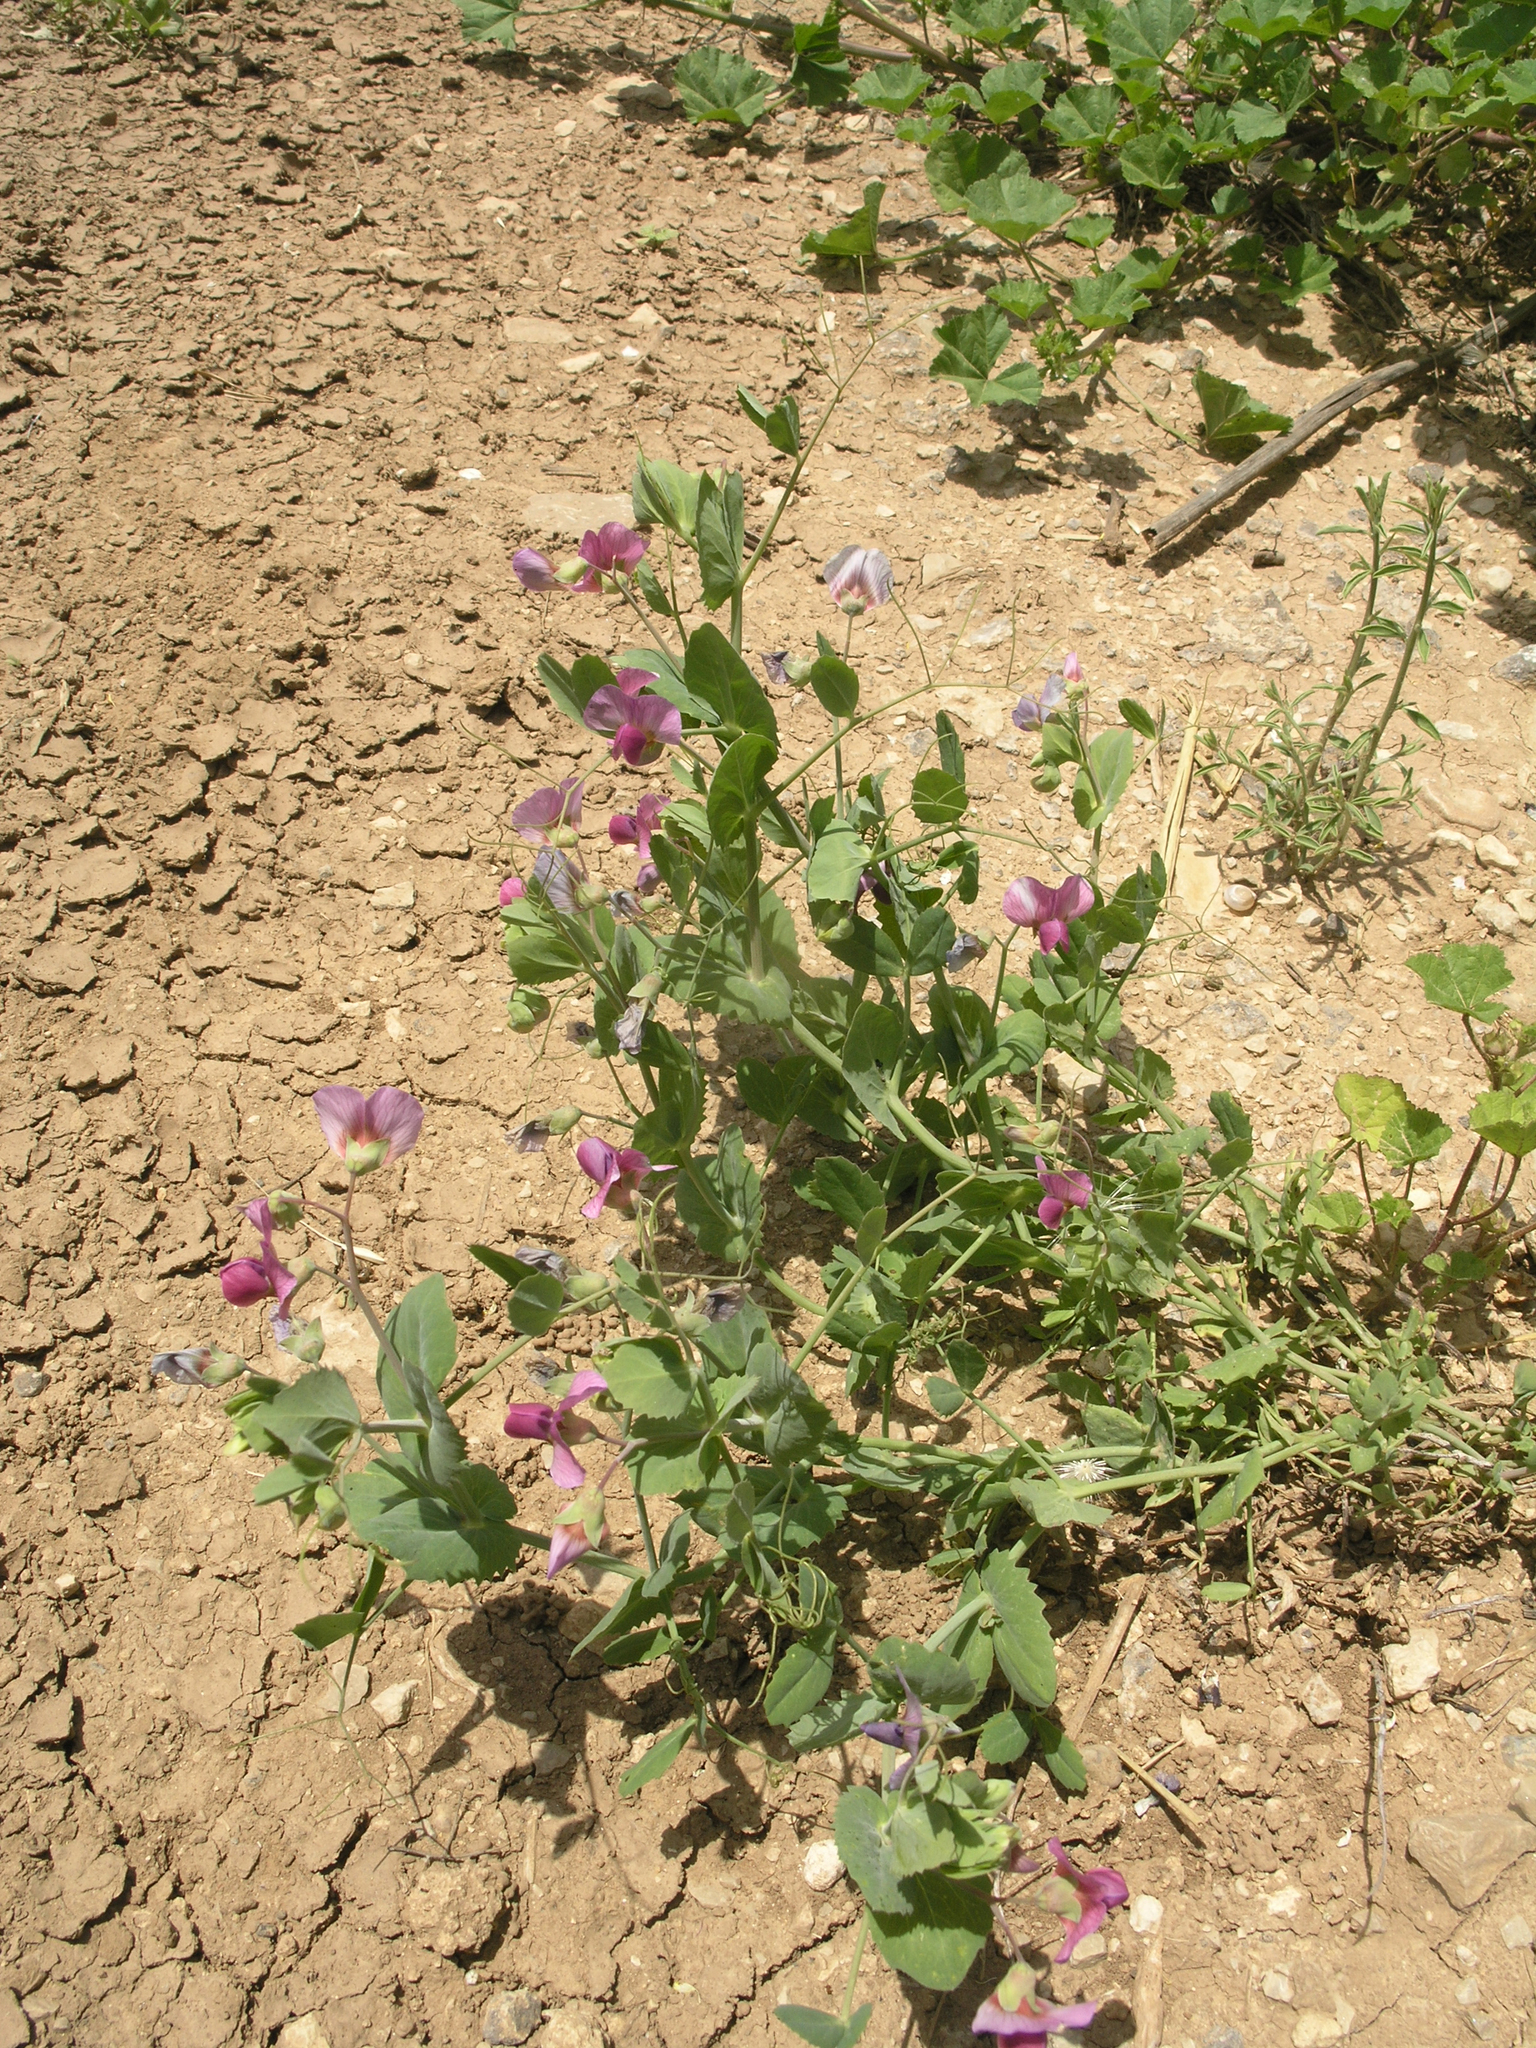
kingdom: Plantae
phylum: Tracheophyta
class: Magnoliopsida
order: Fabales
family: Fabaceae
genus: Lathyrus
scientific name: Lathyrus oleraceus
